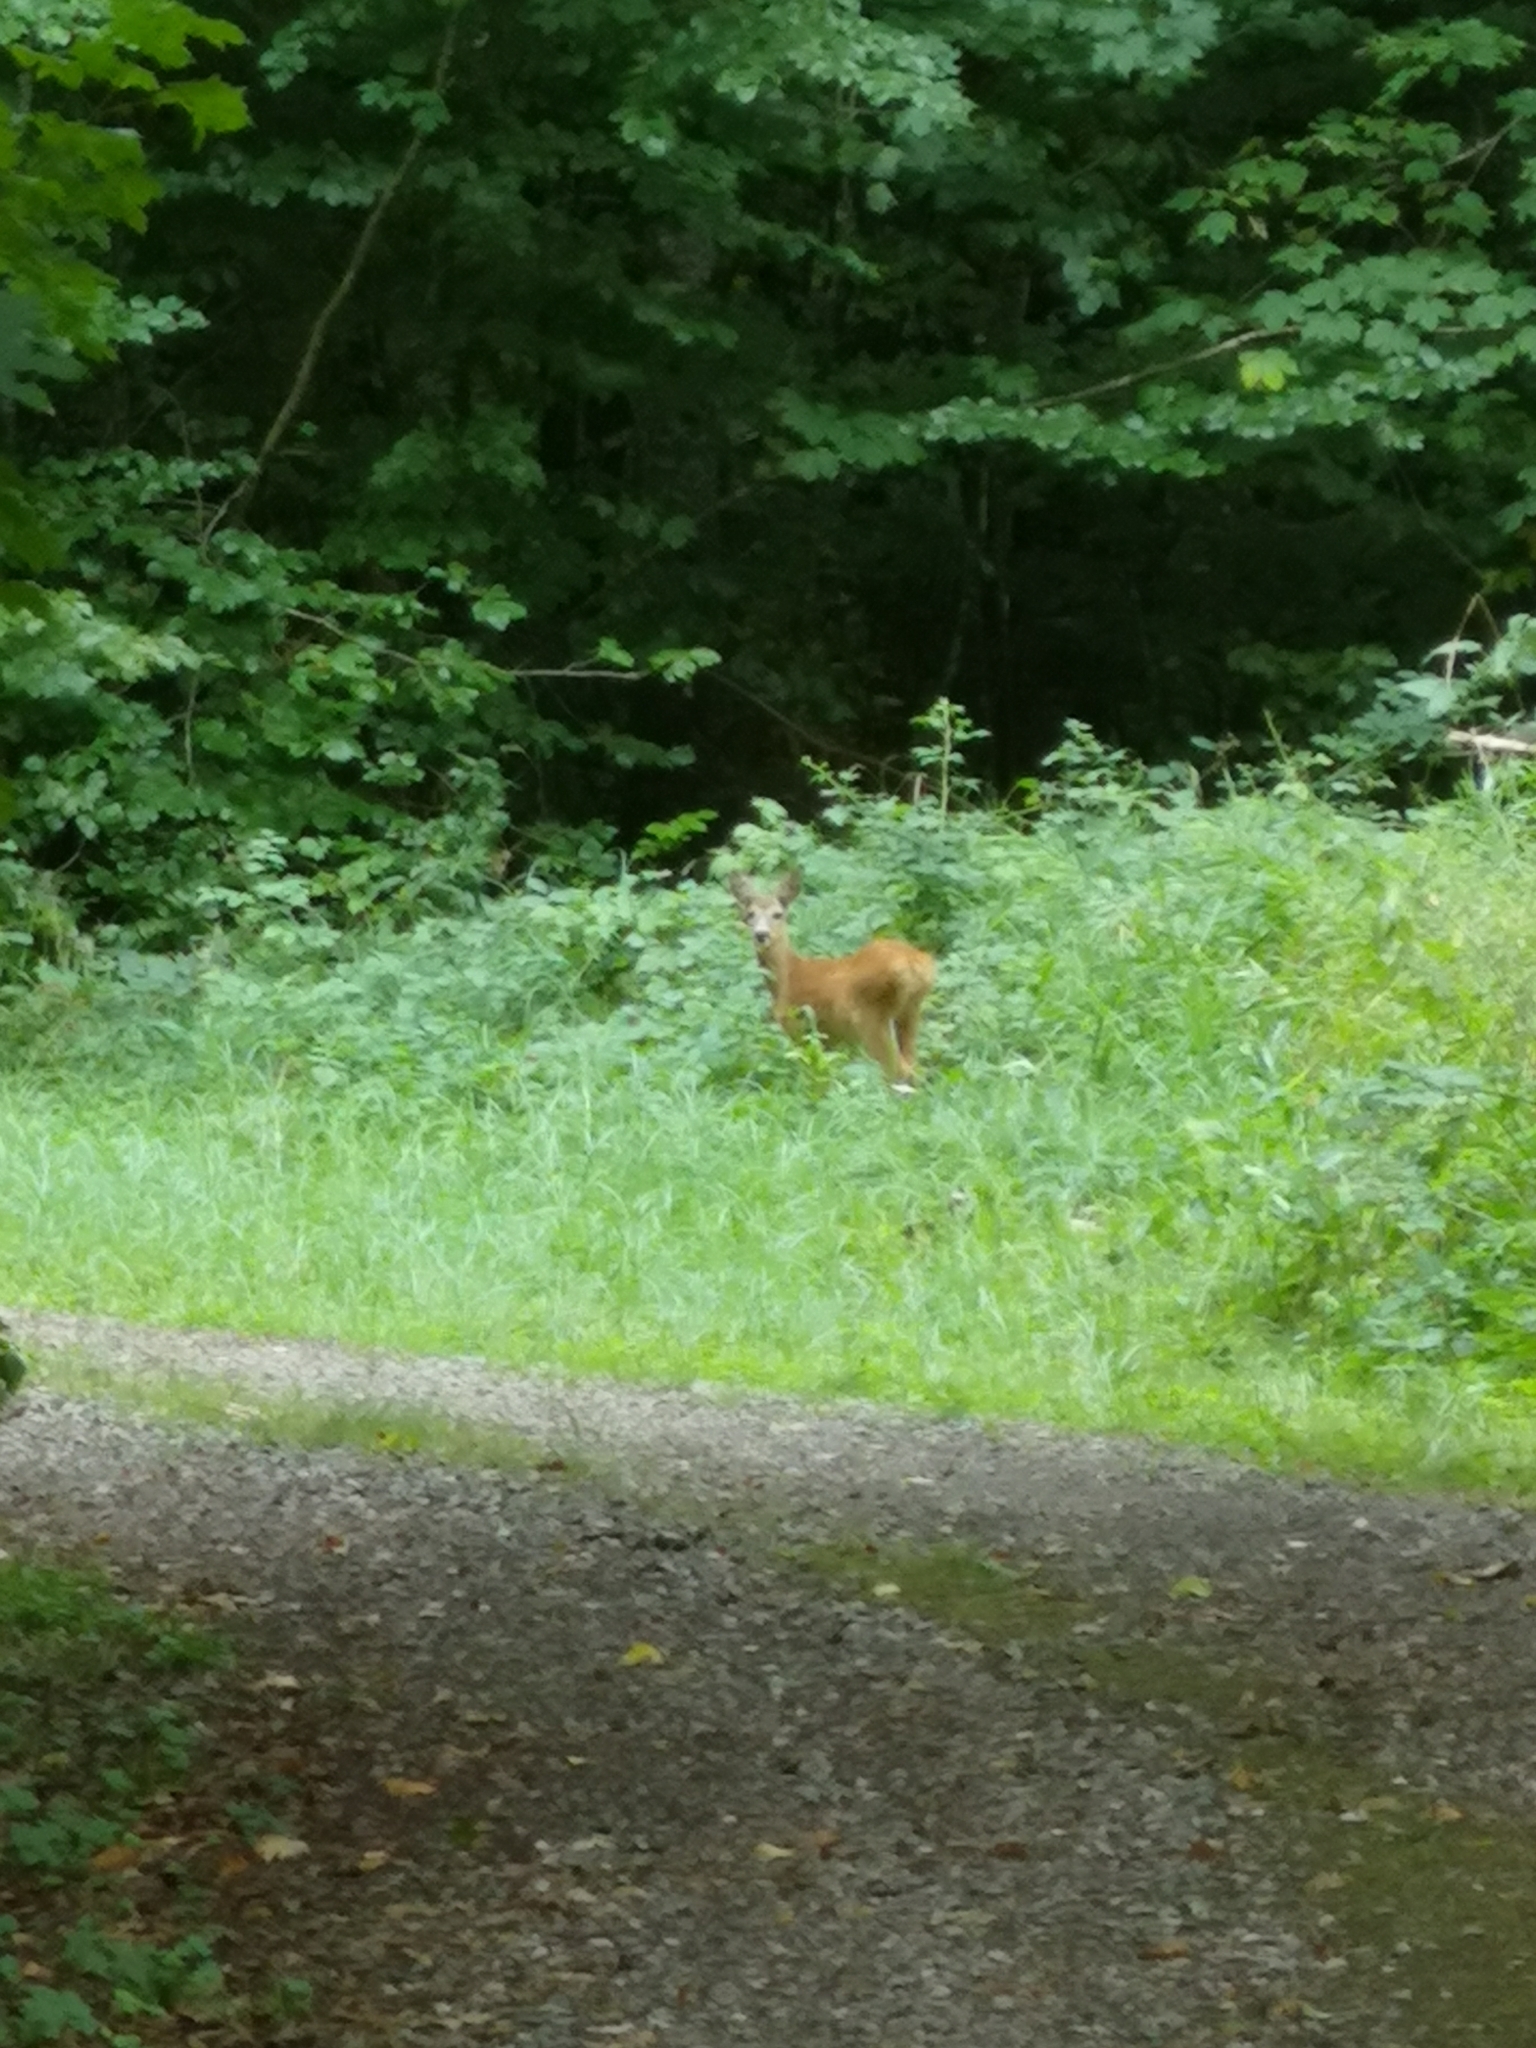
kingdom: Animalia
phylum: Chordata
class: Mammalia
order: Artiodactyla
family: Cervidae
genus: Capreolus
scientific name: Capreolus capreolus
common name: Western roe deer
